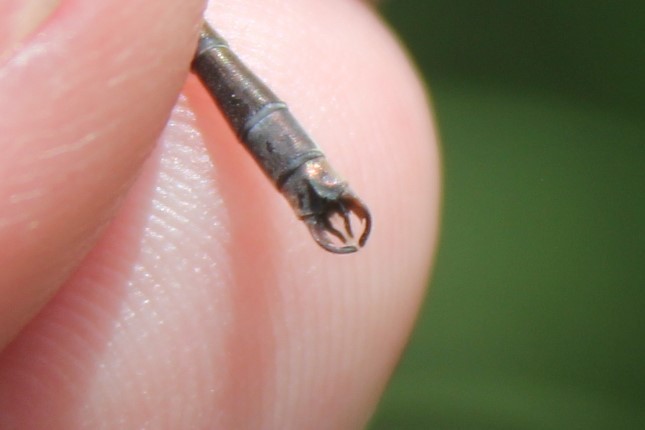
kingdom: Animalia
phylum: Arthropoda
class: Insecta
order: Odonata
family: Lestidae
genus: Lestes
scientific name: Lestes rectangularis
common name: Slender spreadwing
